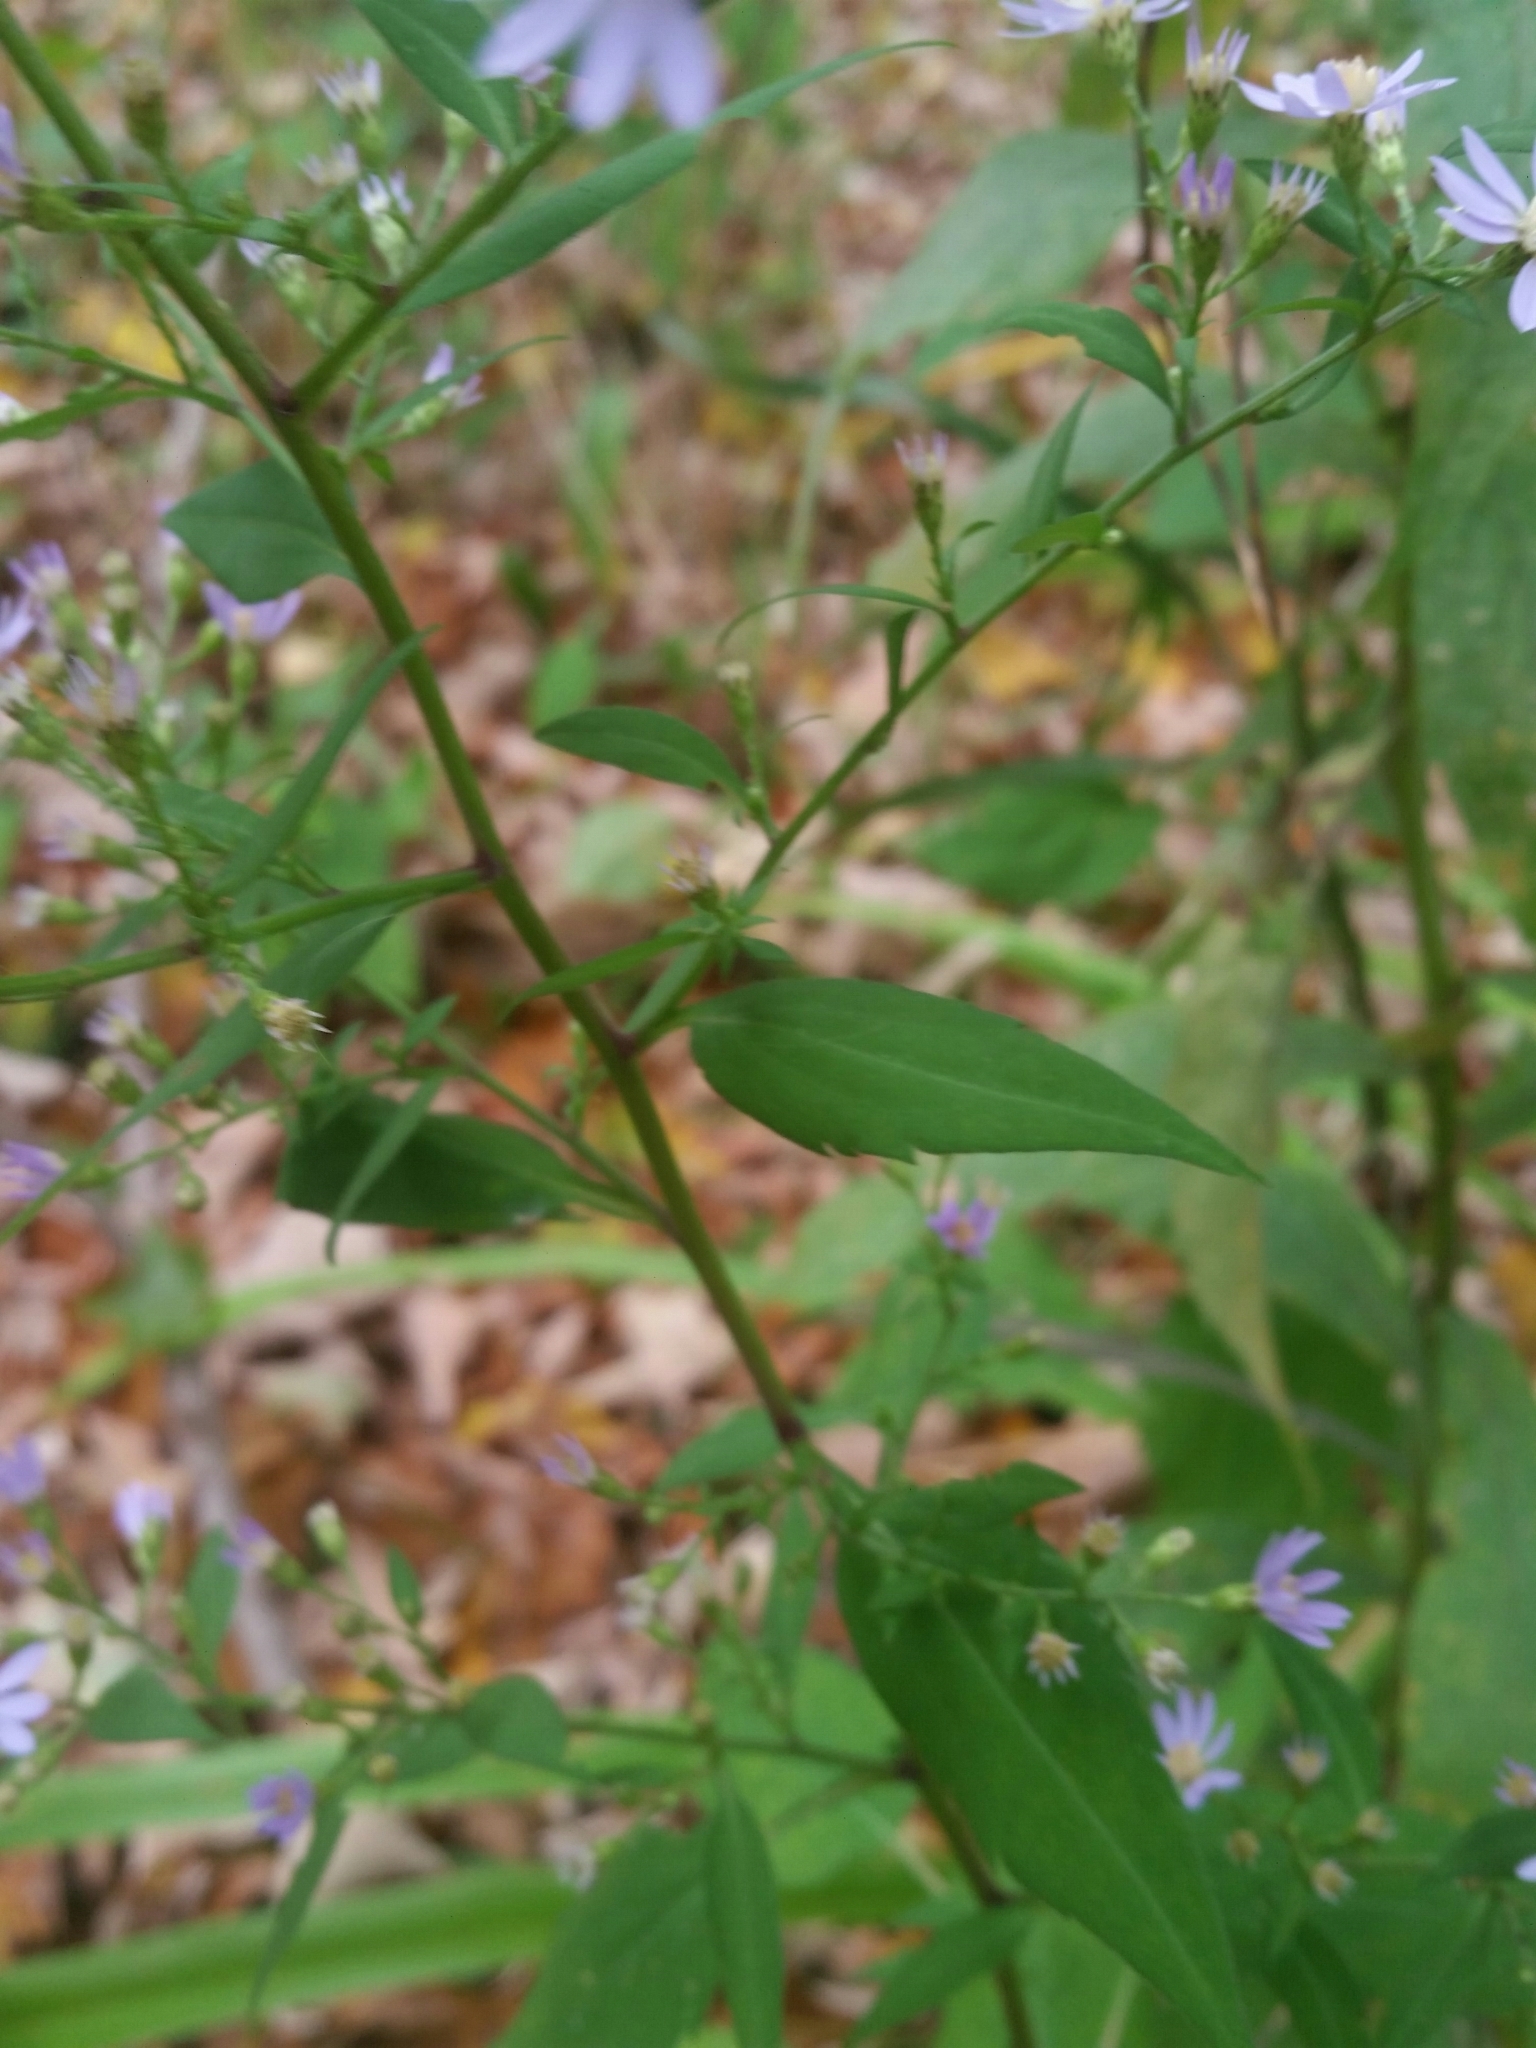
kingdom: Plantae
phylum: Tracheophyta
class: Magnoliopsida
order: Asterales
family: Asteraceae
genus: Symphyotrichum
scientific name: Symphyotrichum cordifolium
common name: Beeweed
